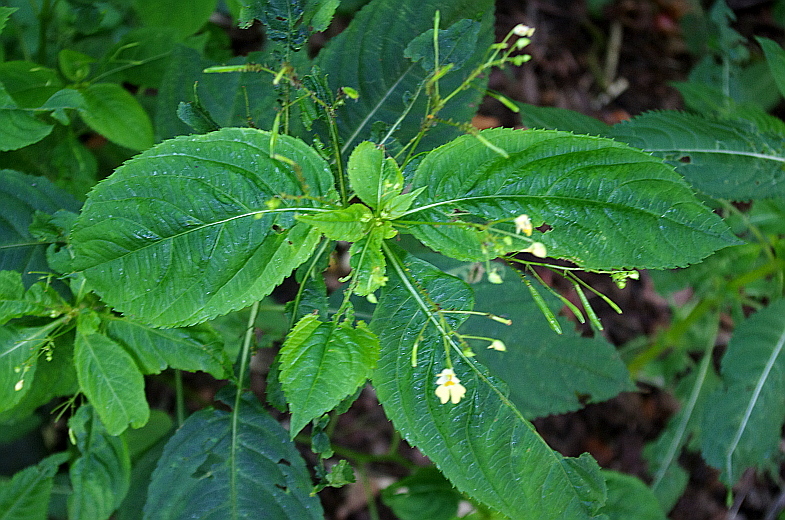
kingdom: Plantae
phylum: Tracheophyta
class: Magnoliopsida
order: Ericales
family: Balsaminaceae
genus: Impatiens
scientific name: Impatiens parviflora
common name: Small balsam
